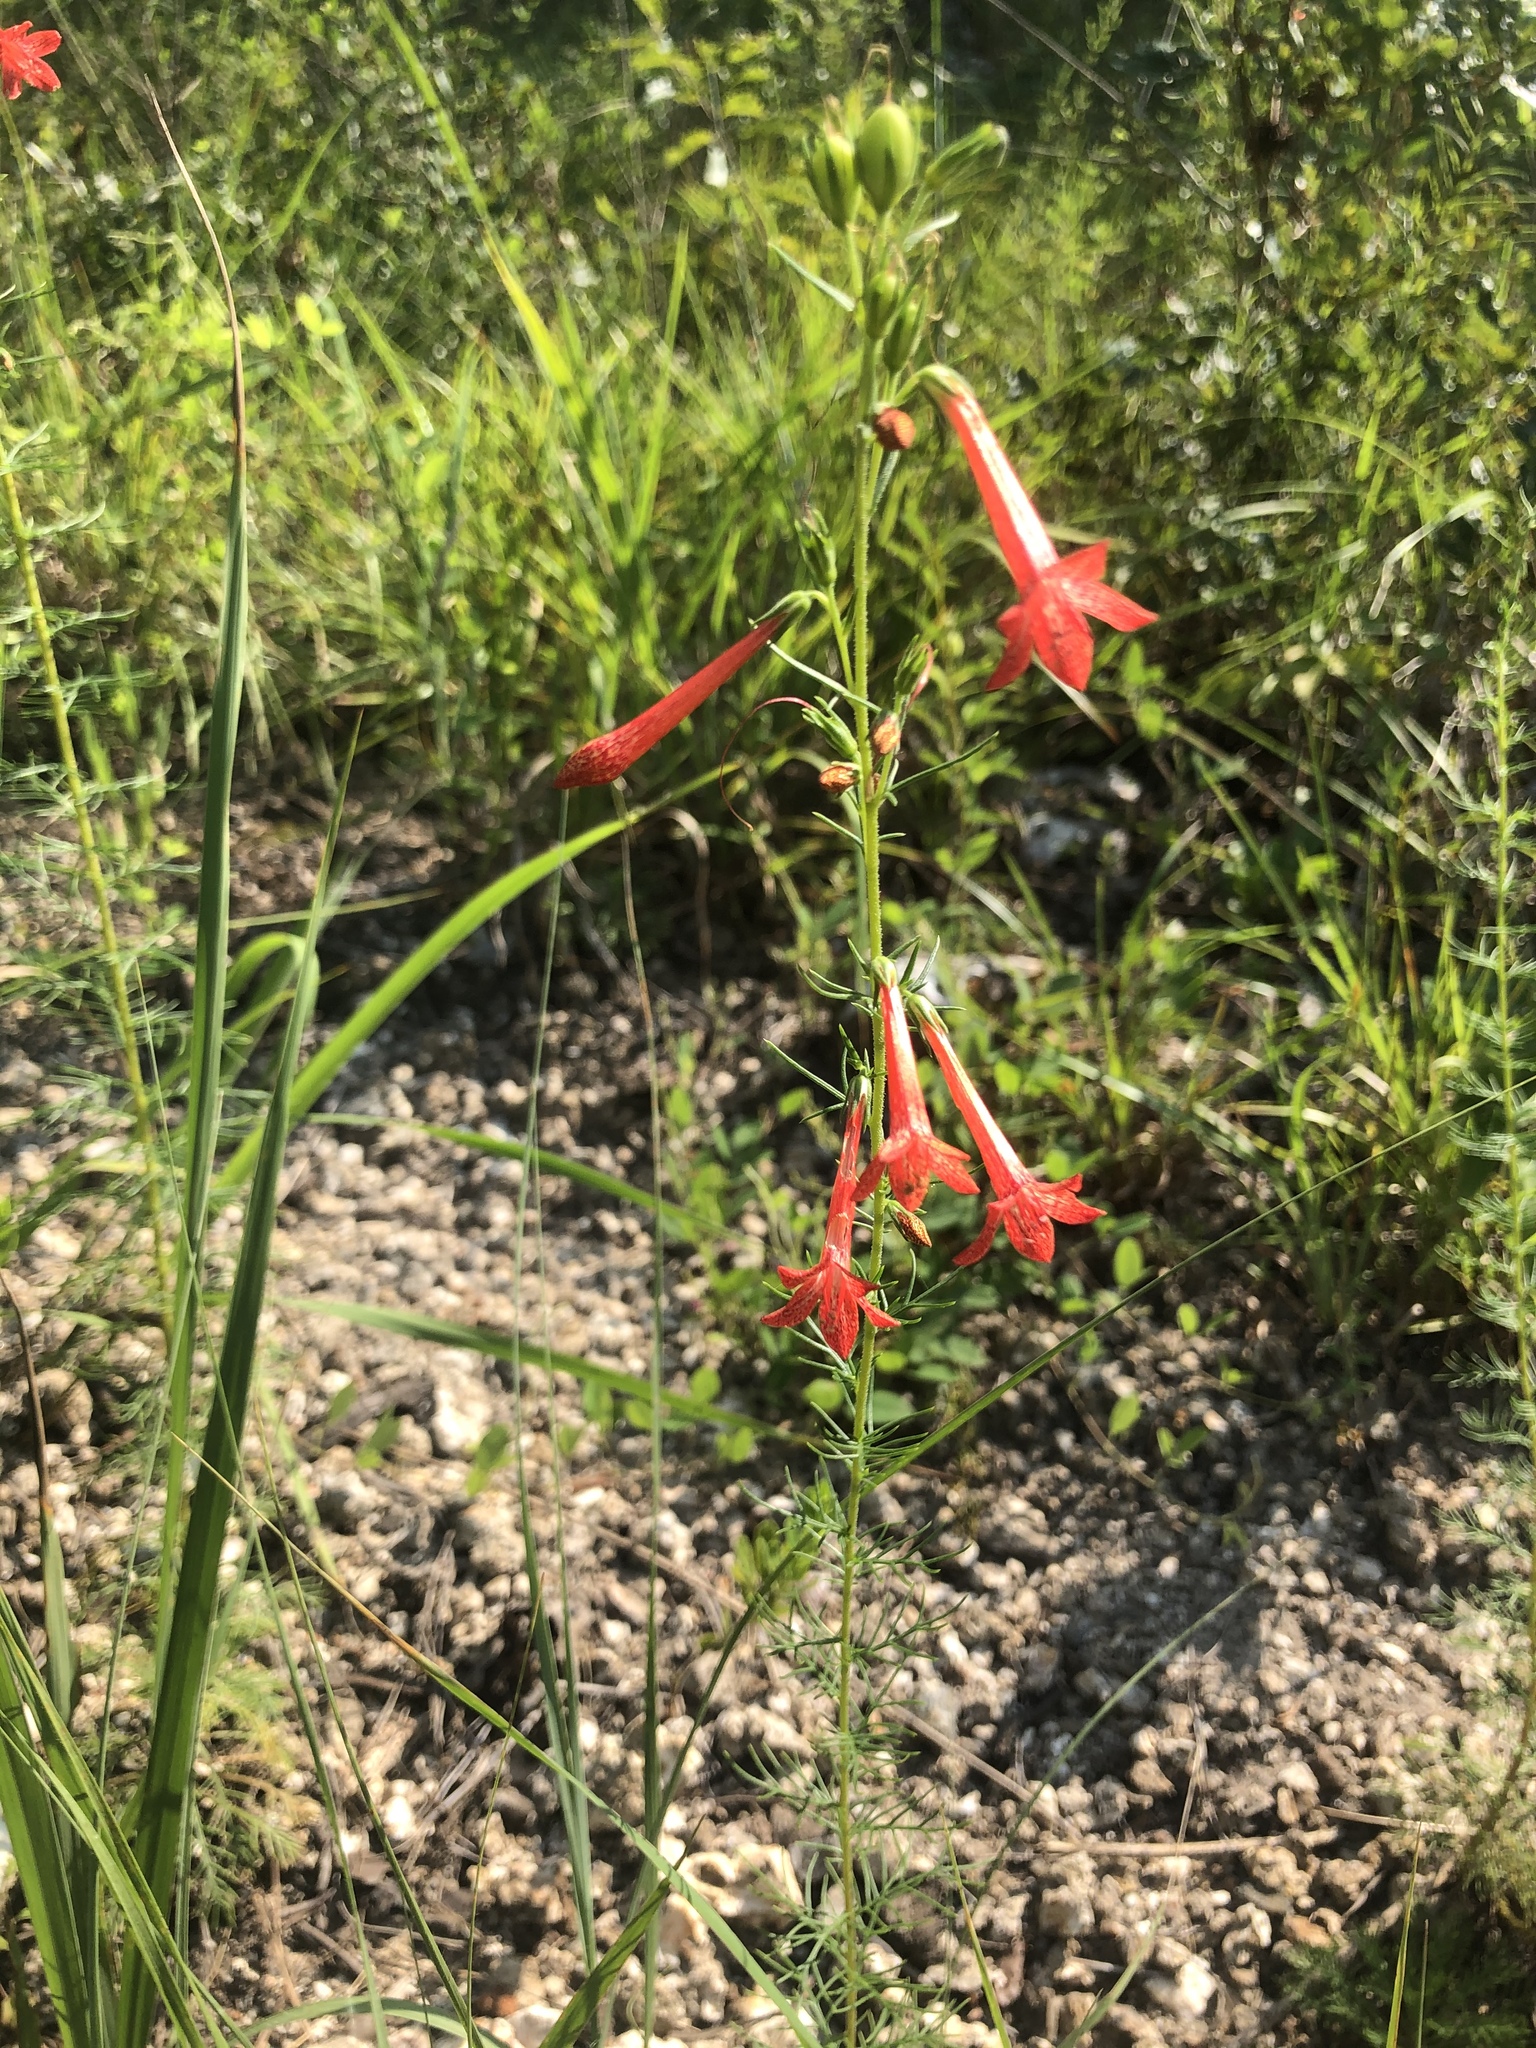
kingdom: Plantae
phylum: Tracheophyta
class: Magnoliopsida
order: Ericales
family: Polemoniaceae
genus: Ipomopsis
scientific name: Ipomopsis rubra
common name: Skyrocket
